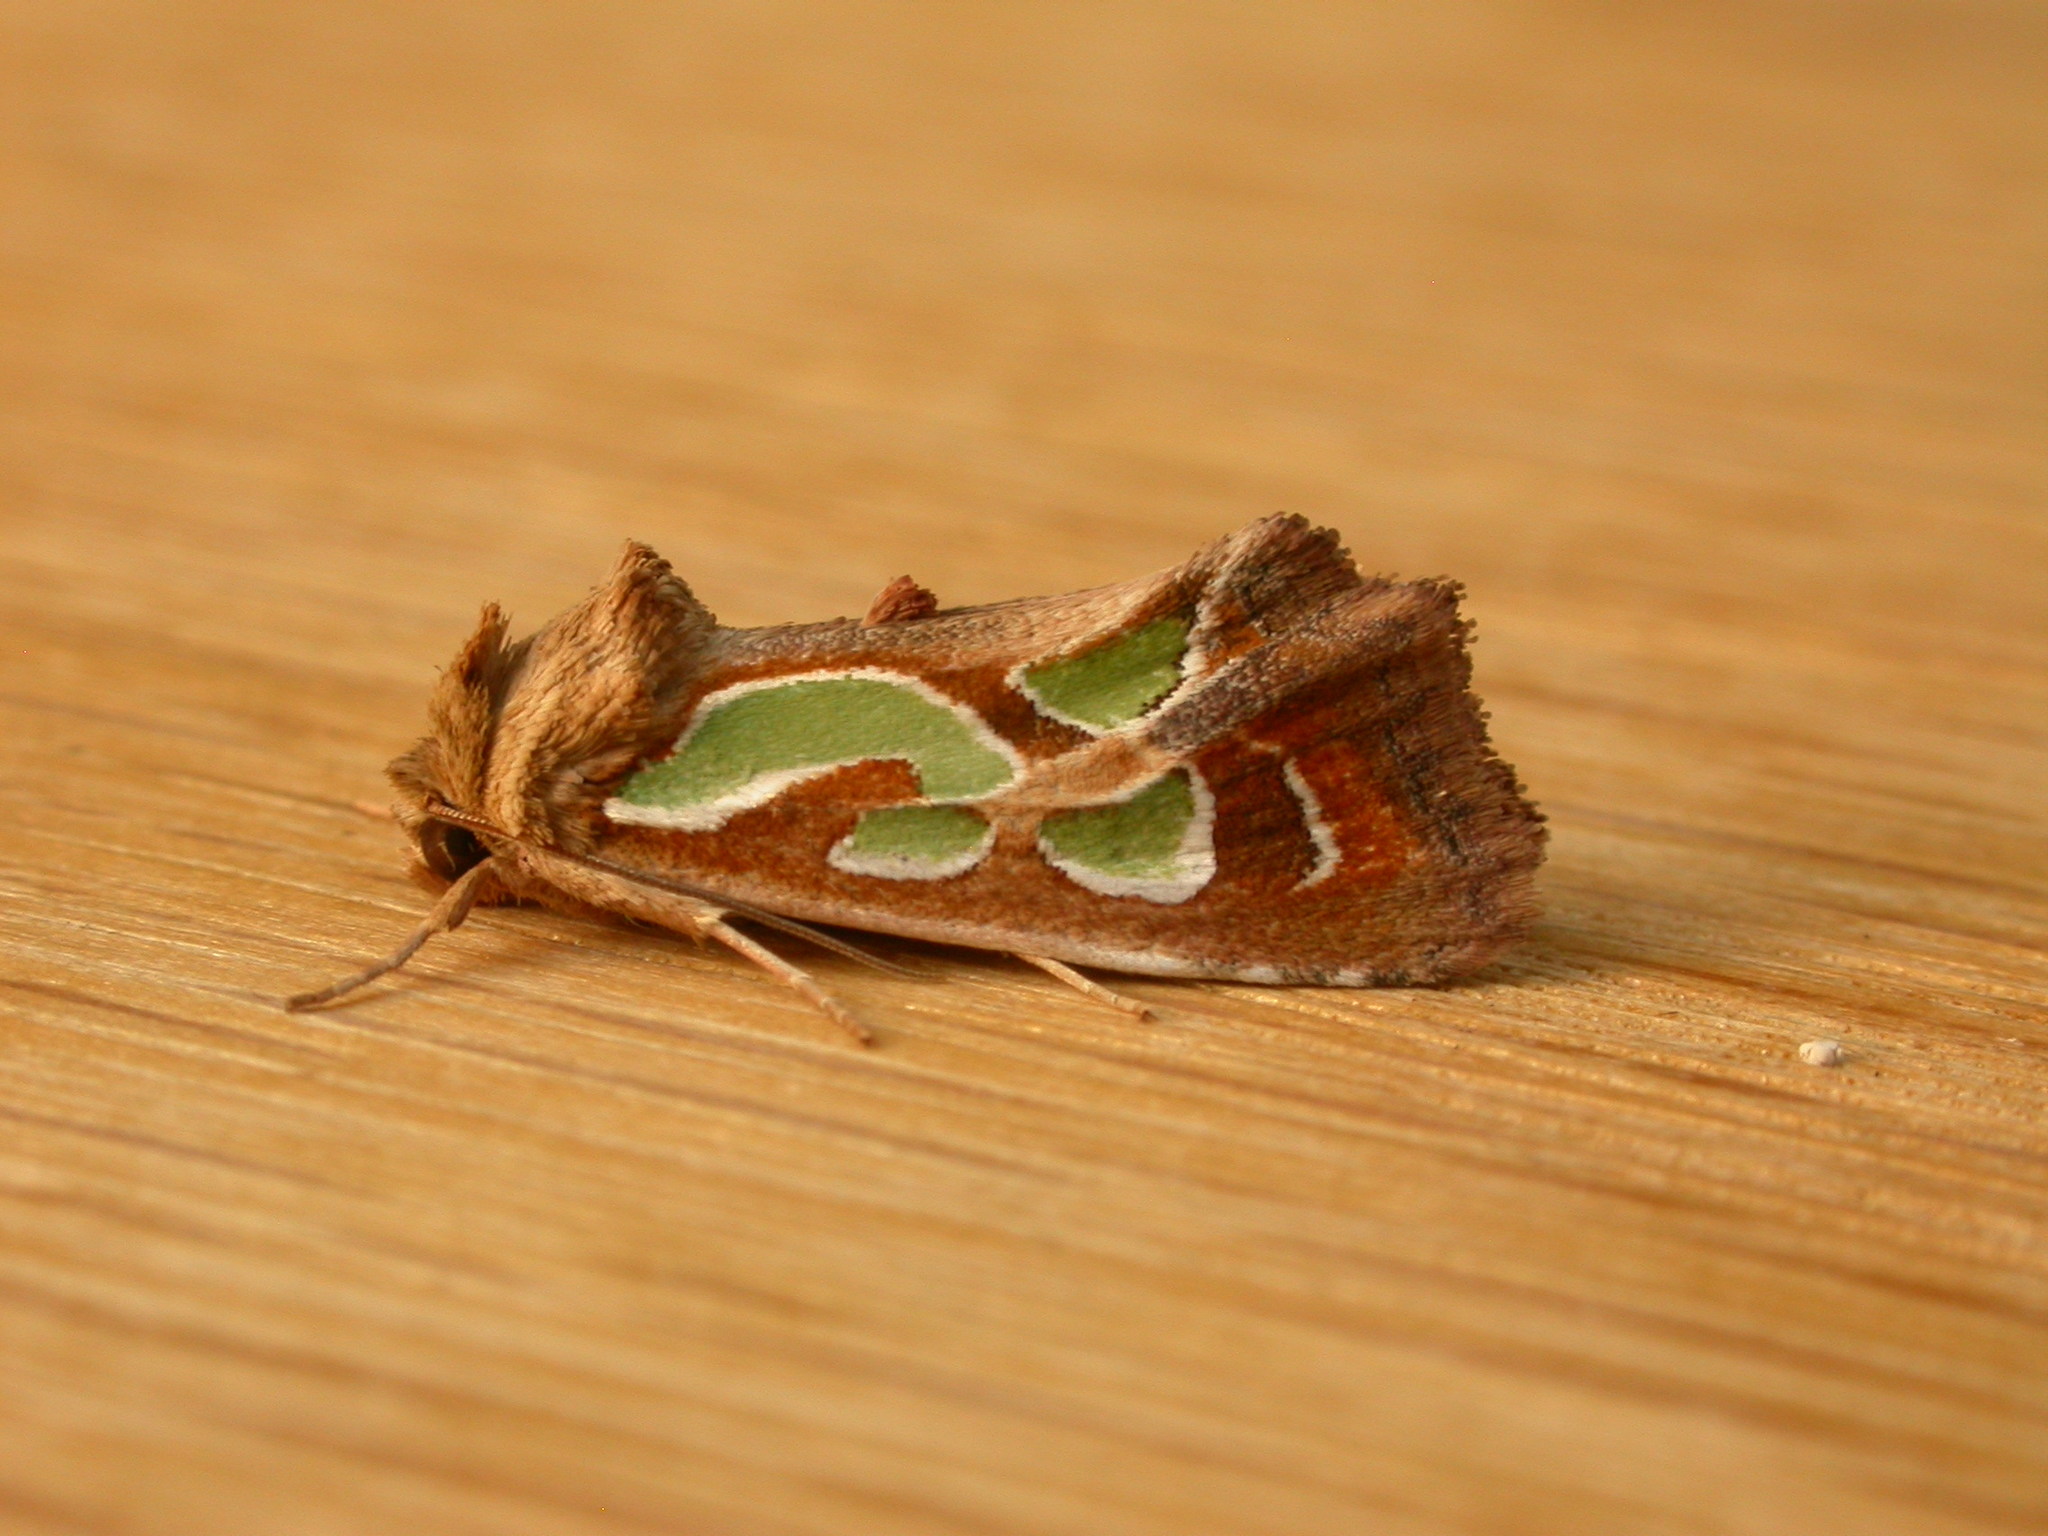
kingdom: Animalia
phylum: Arthropoda
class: Insecta
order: Lepidoptera
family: Noctuidae
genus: Cosmodes
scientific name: Cosmodes elegans
